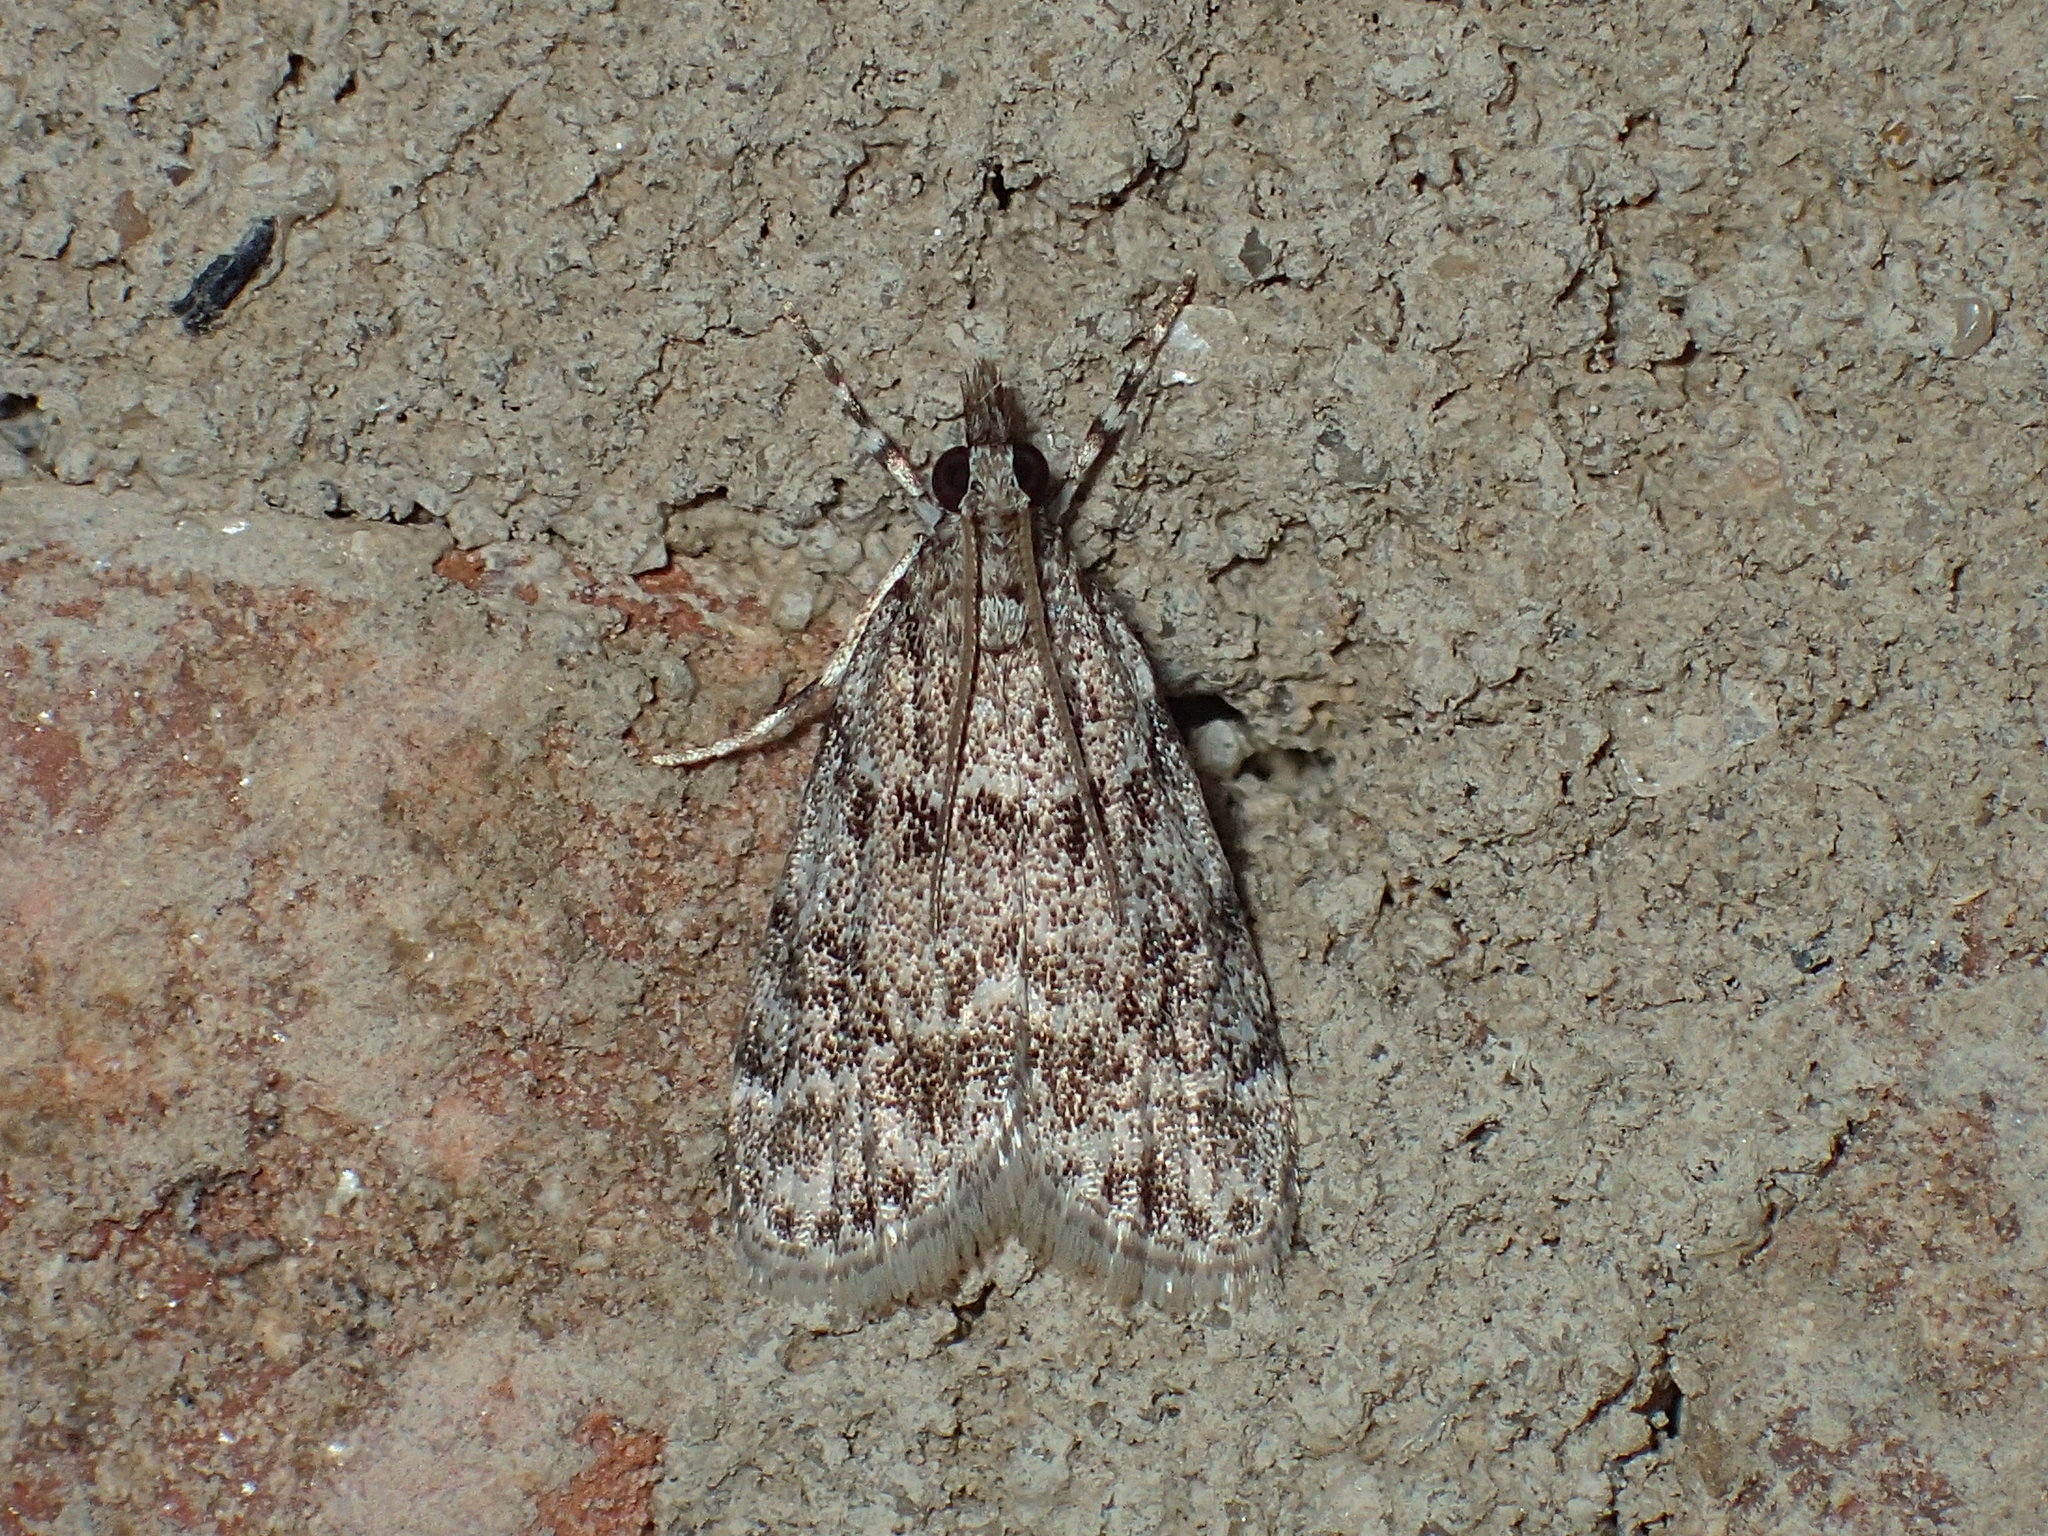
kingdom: Animalia
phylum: Arthropoda
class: Insecta
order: Lepidoptera
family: Crambidae
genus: Scoparia
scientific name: Scoparia basalis
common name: Many-spotted scoparia moth
